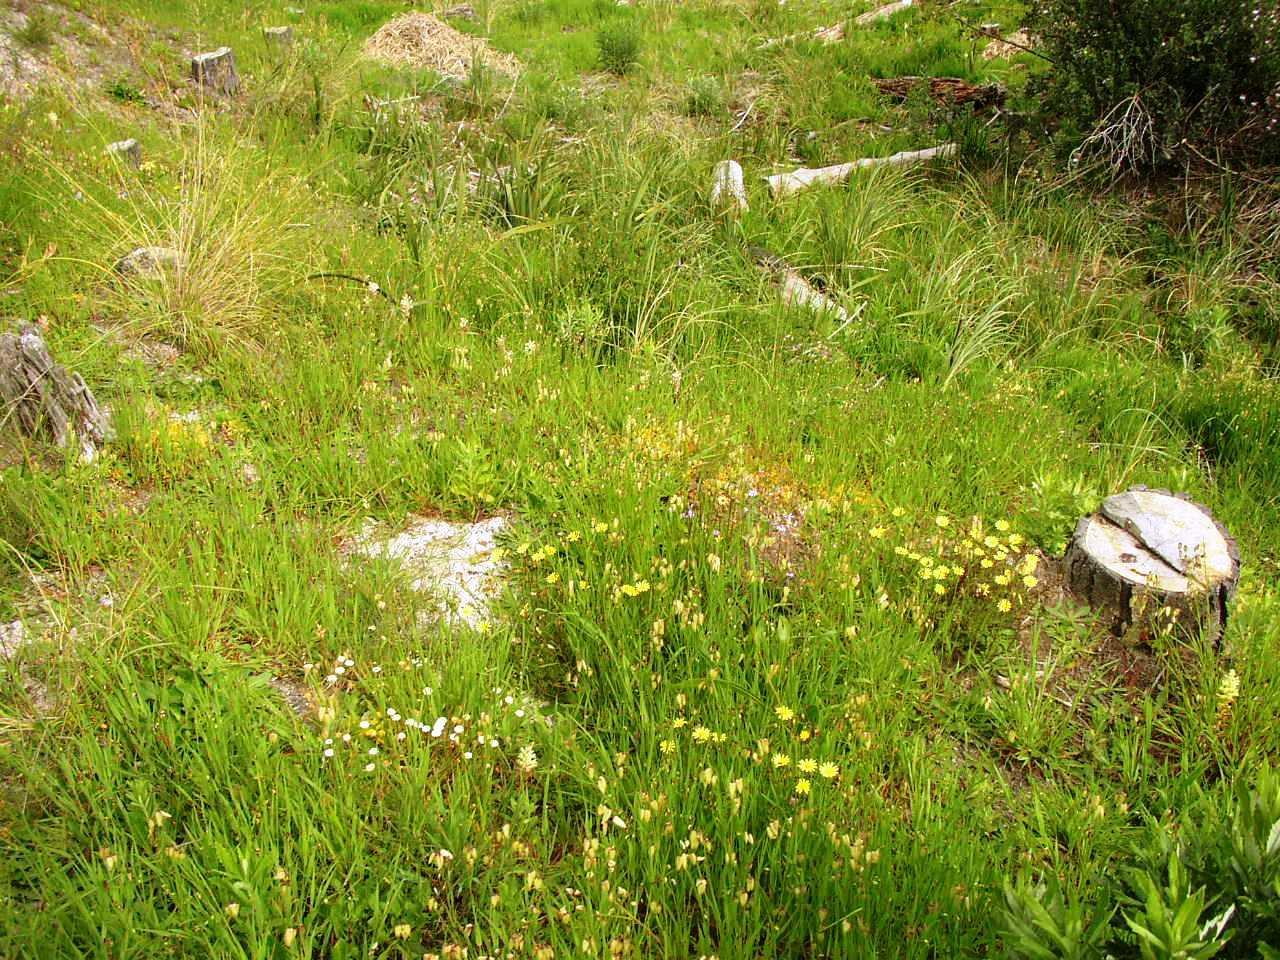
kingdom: Plantae
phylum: Tracheophyta
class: Liliopsida
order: Poales
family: Poaceae
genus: Briza
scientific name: Briza maxima
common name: Big quakinggrass
